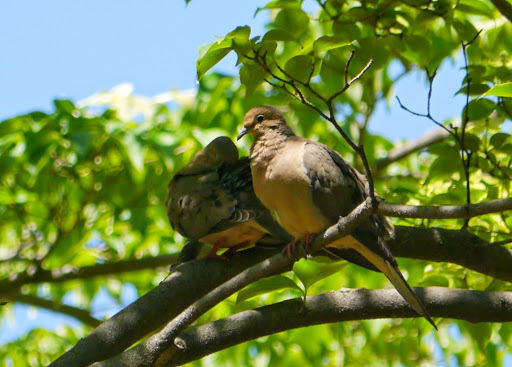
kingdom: Animalia
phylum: Chordata
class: Aves
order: Columbiformes
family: Columbidae
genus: Zenaida
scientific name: Zenaida macroura
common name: Mourning dove
